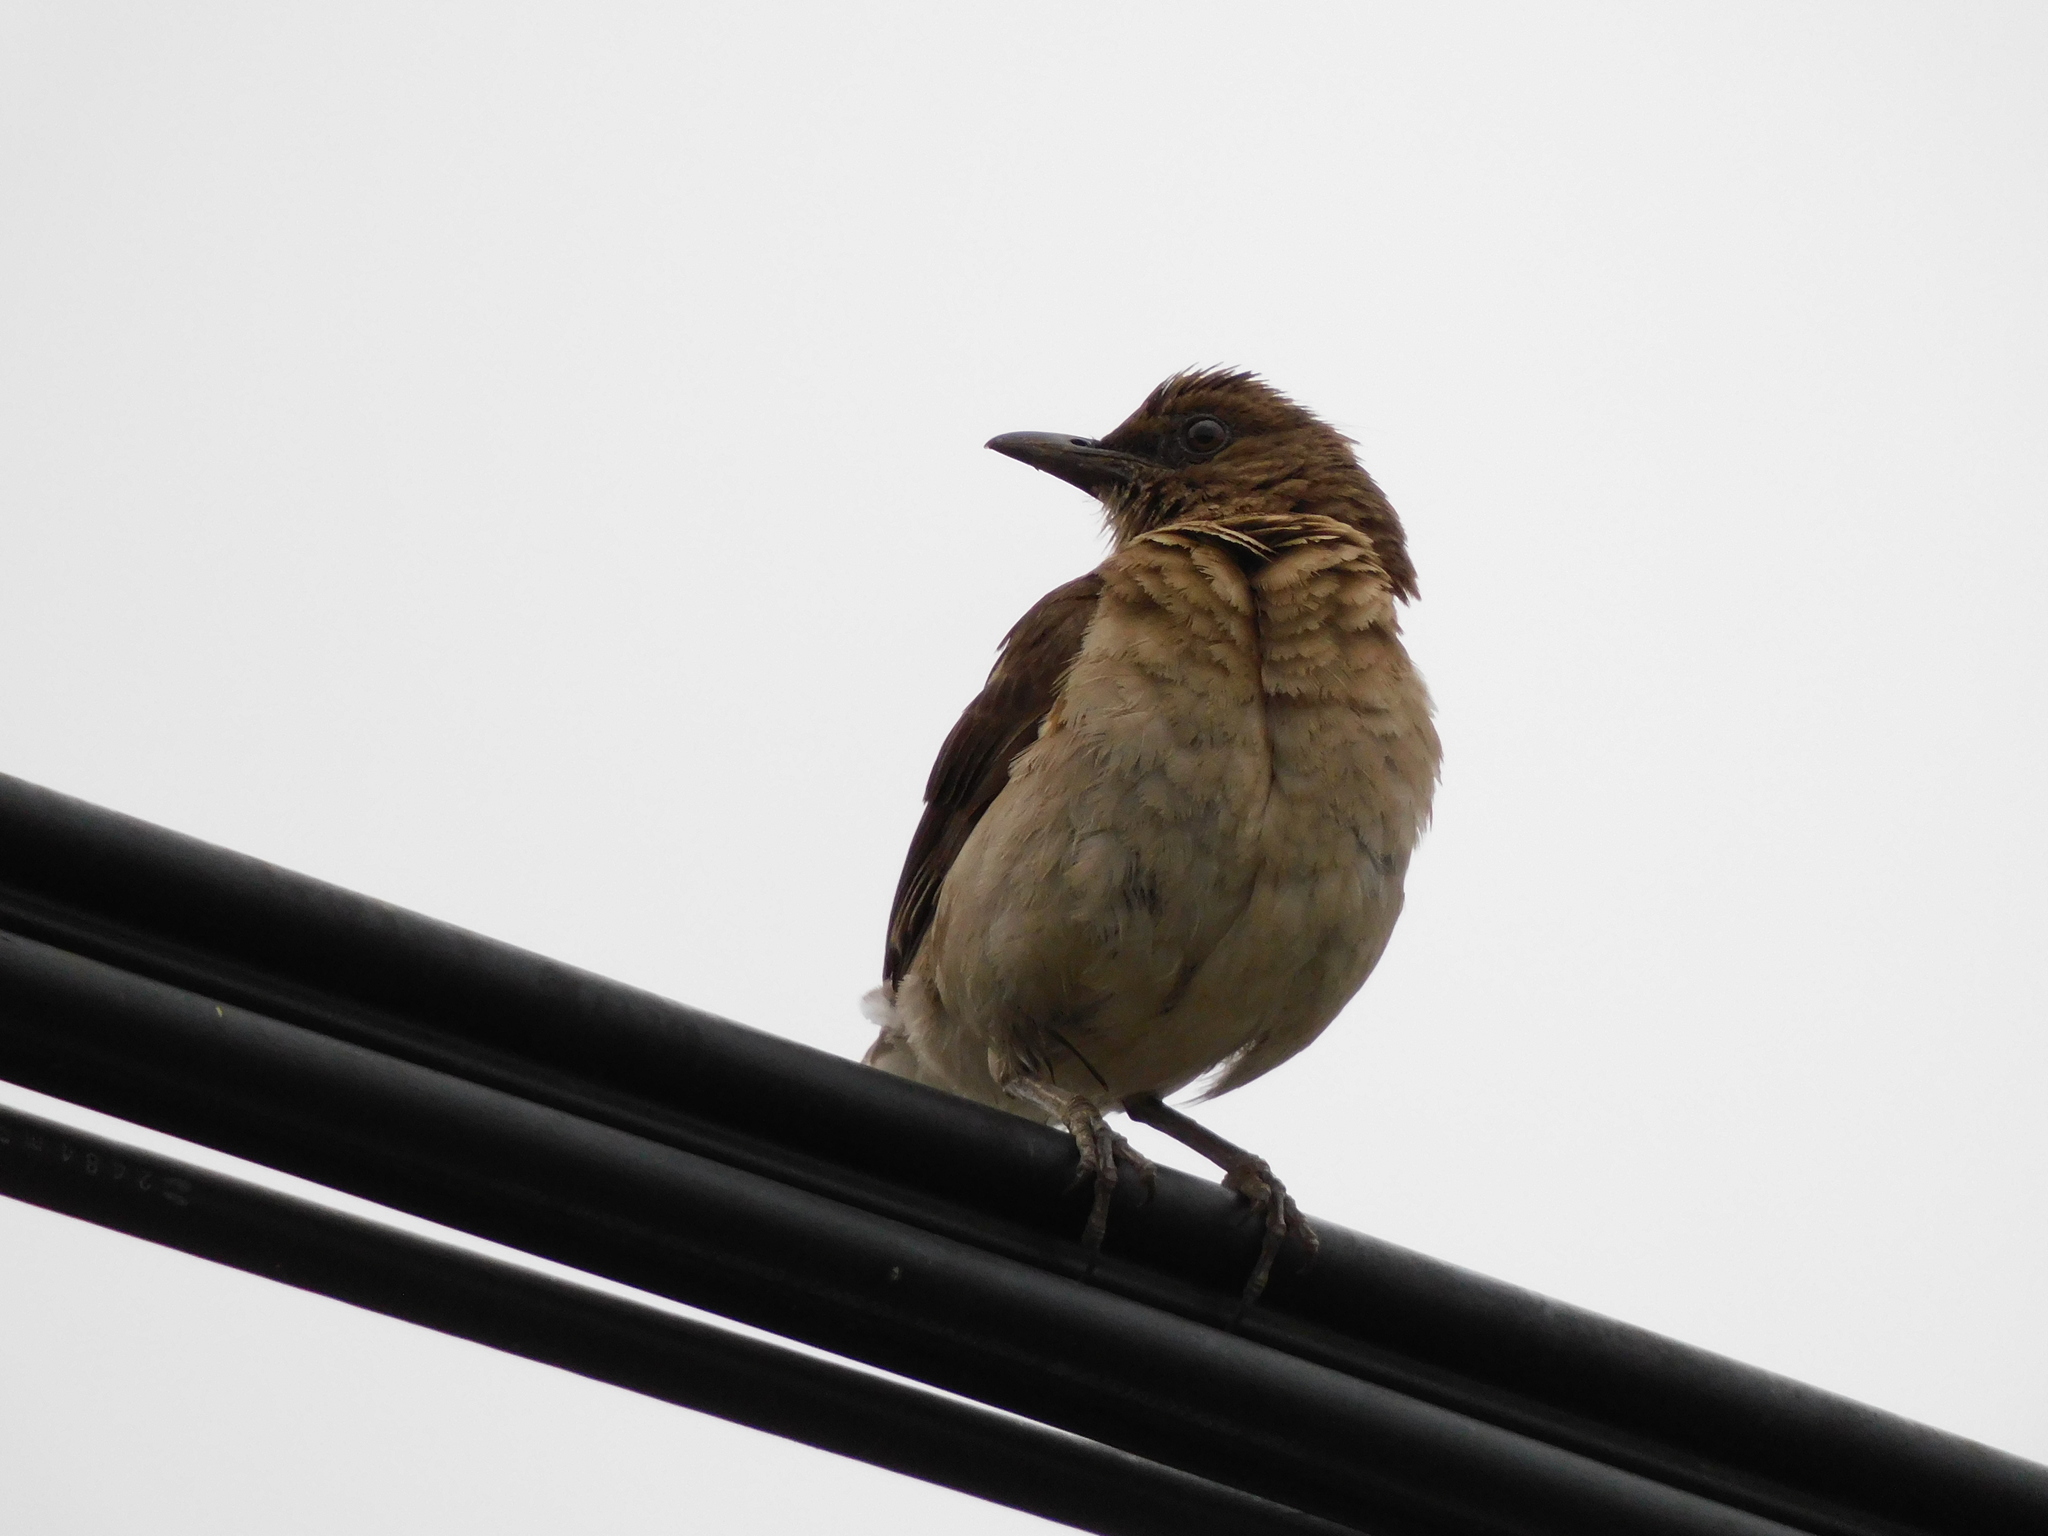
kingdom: Animalia
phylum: Chordata
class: Aves
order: Passeriformes
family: Turdidae
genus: Turdus
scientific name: Turdus ignobilis
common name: Black-billed thrush
